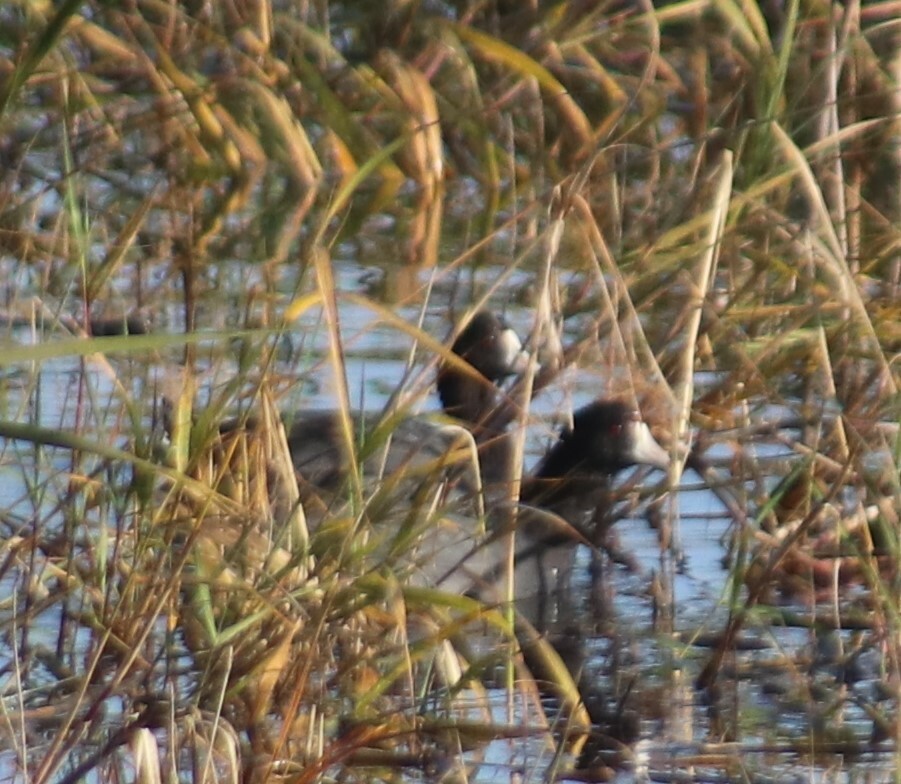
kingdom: Animalia
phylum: Chordata
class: Aves
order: Gruiformes
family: Rallidae
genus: Fulica
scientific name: Fulica americana
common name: American coot
